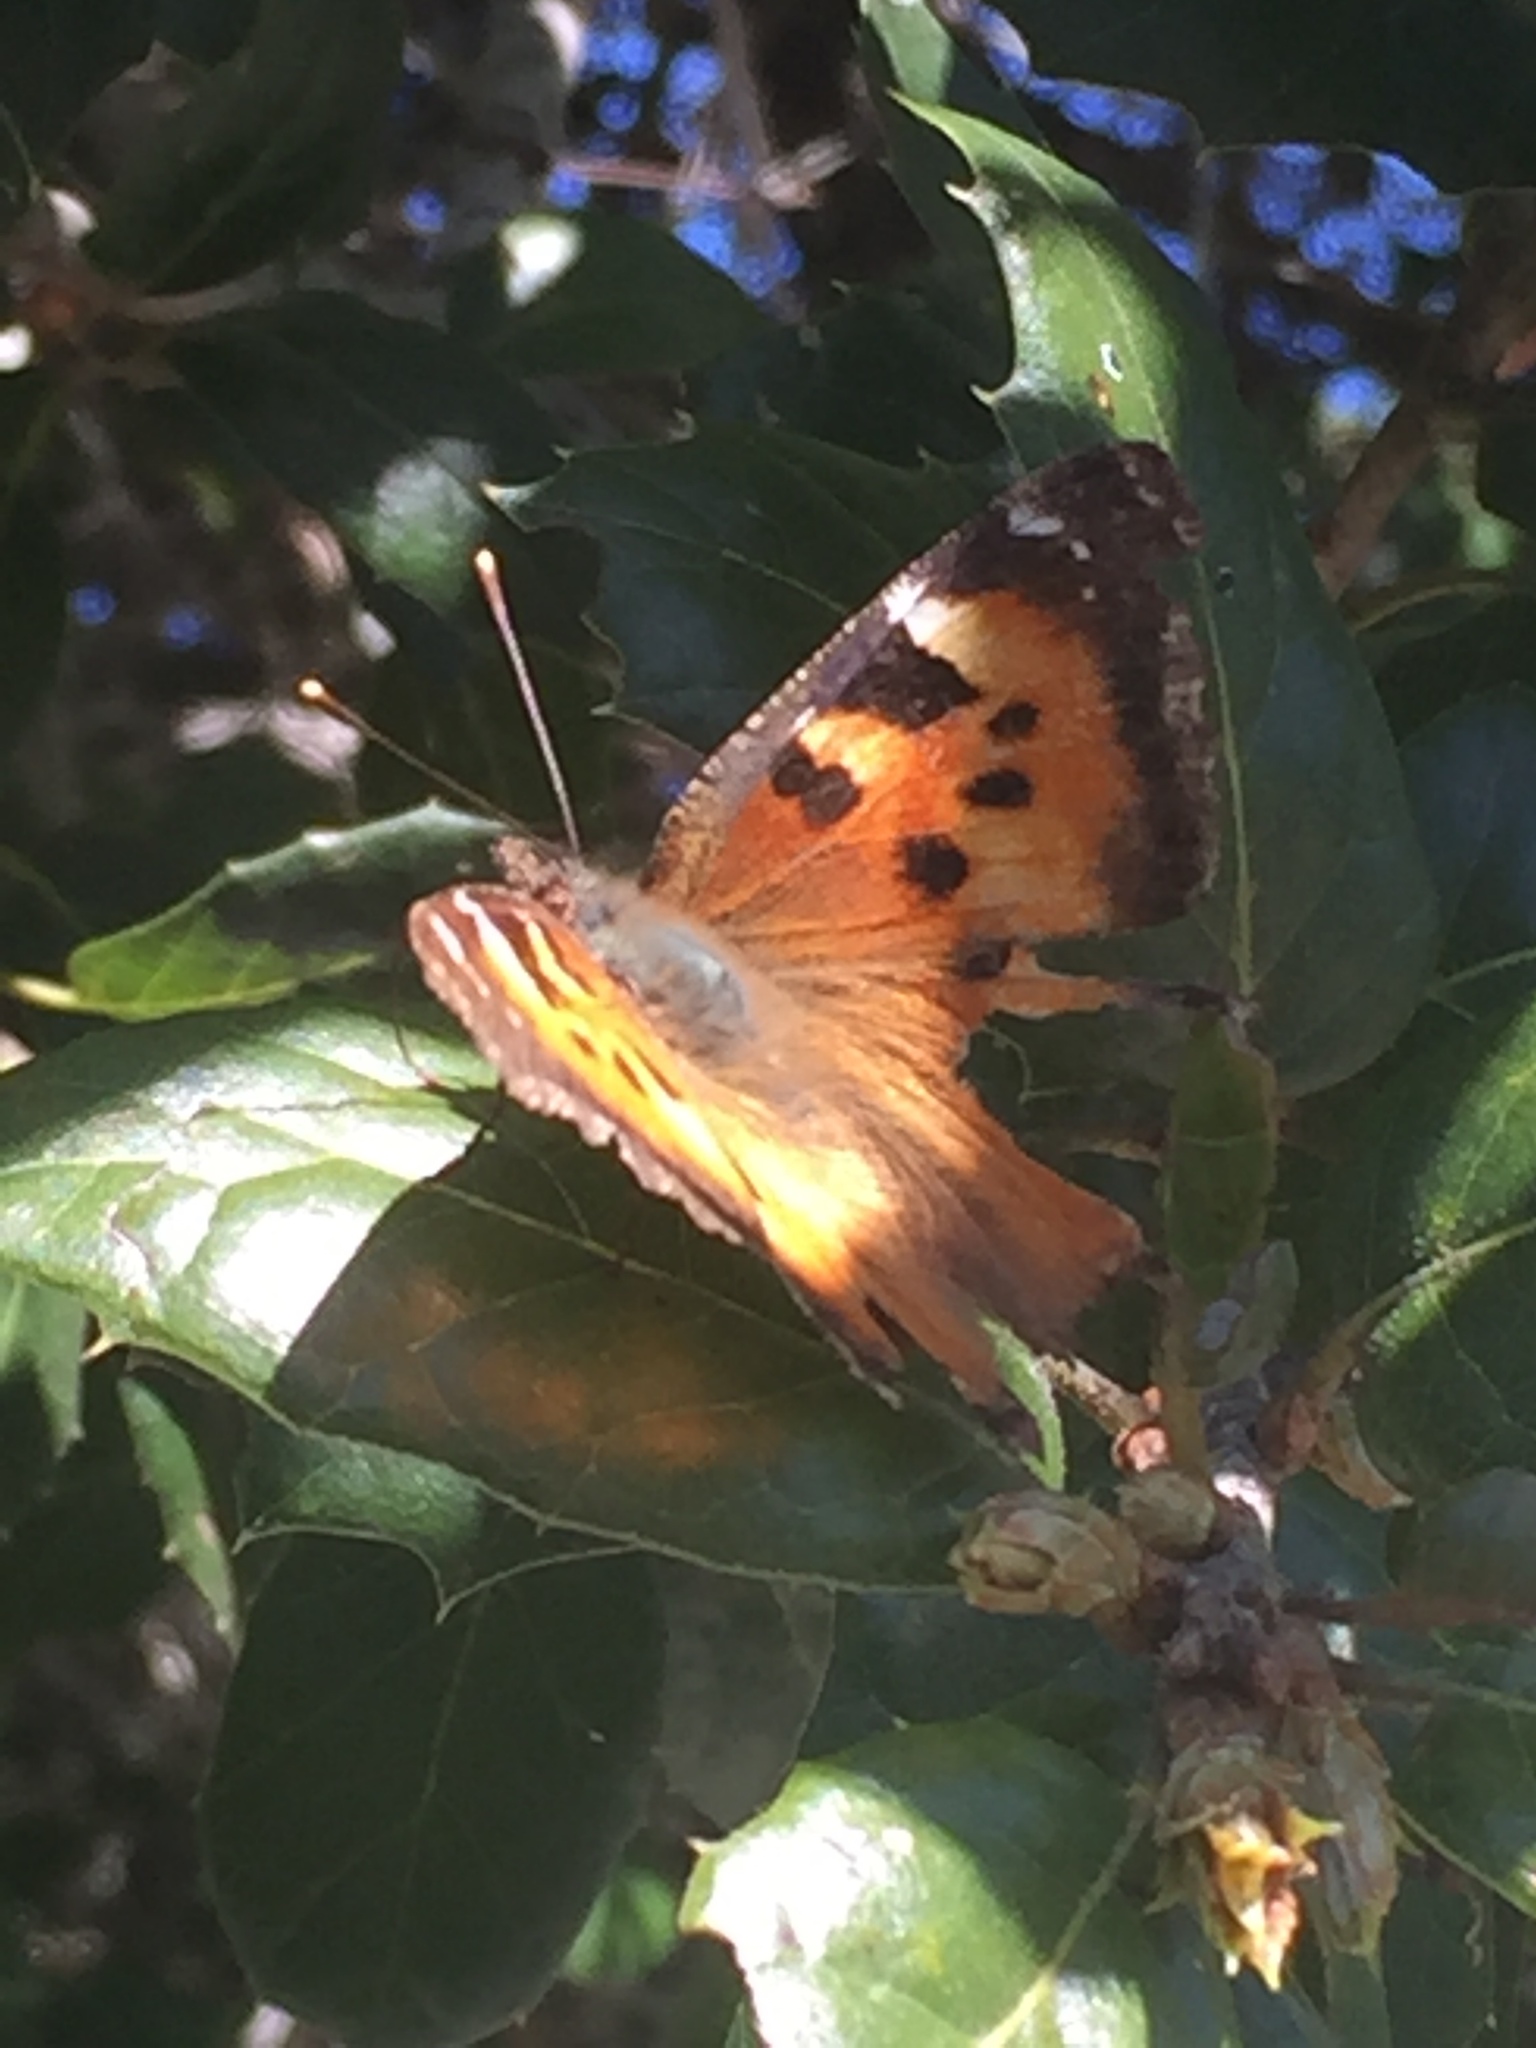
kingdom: Animalia
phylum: Arthropoda
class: Insecta
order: Lepidoptera
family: Nymphalidae
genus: Nymphalis
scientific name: Nymphalis californica
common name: California tortoiseshell
